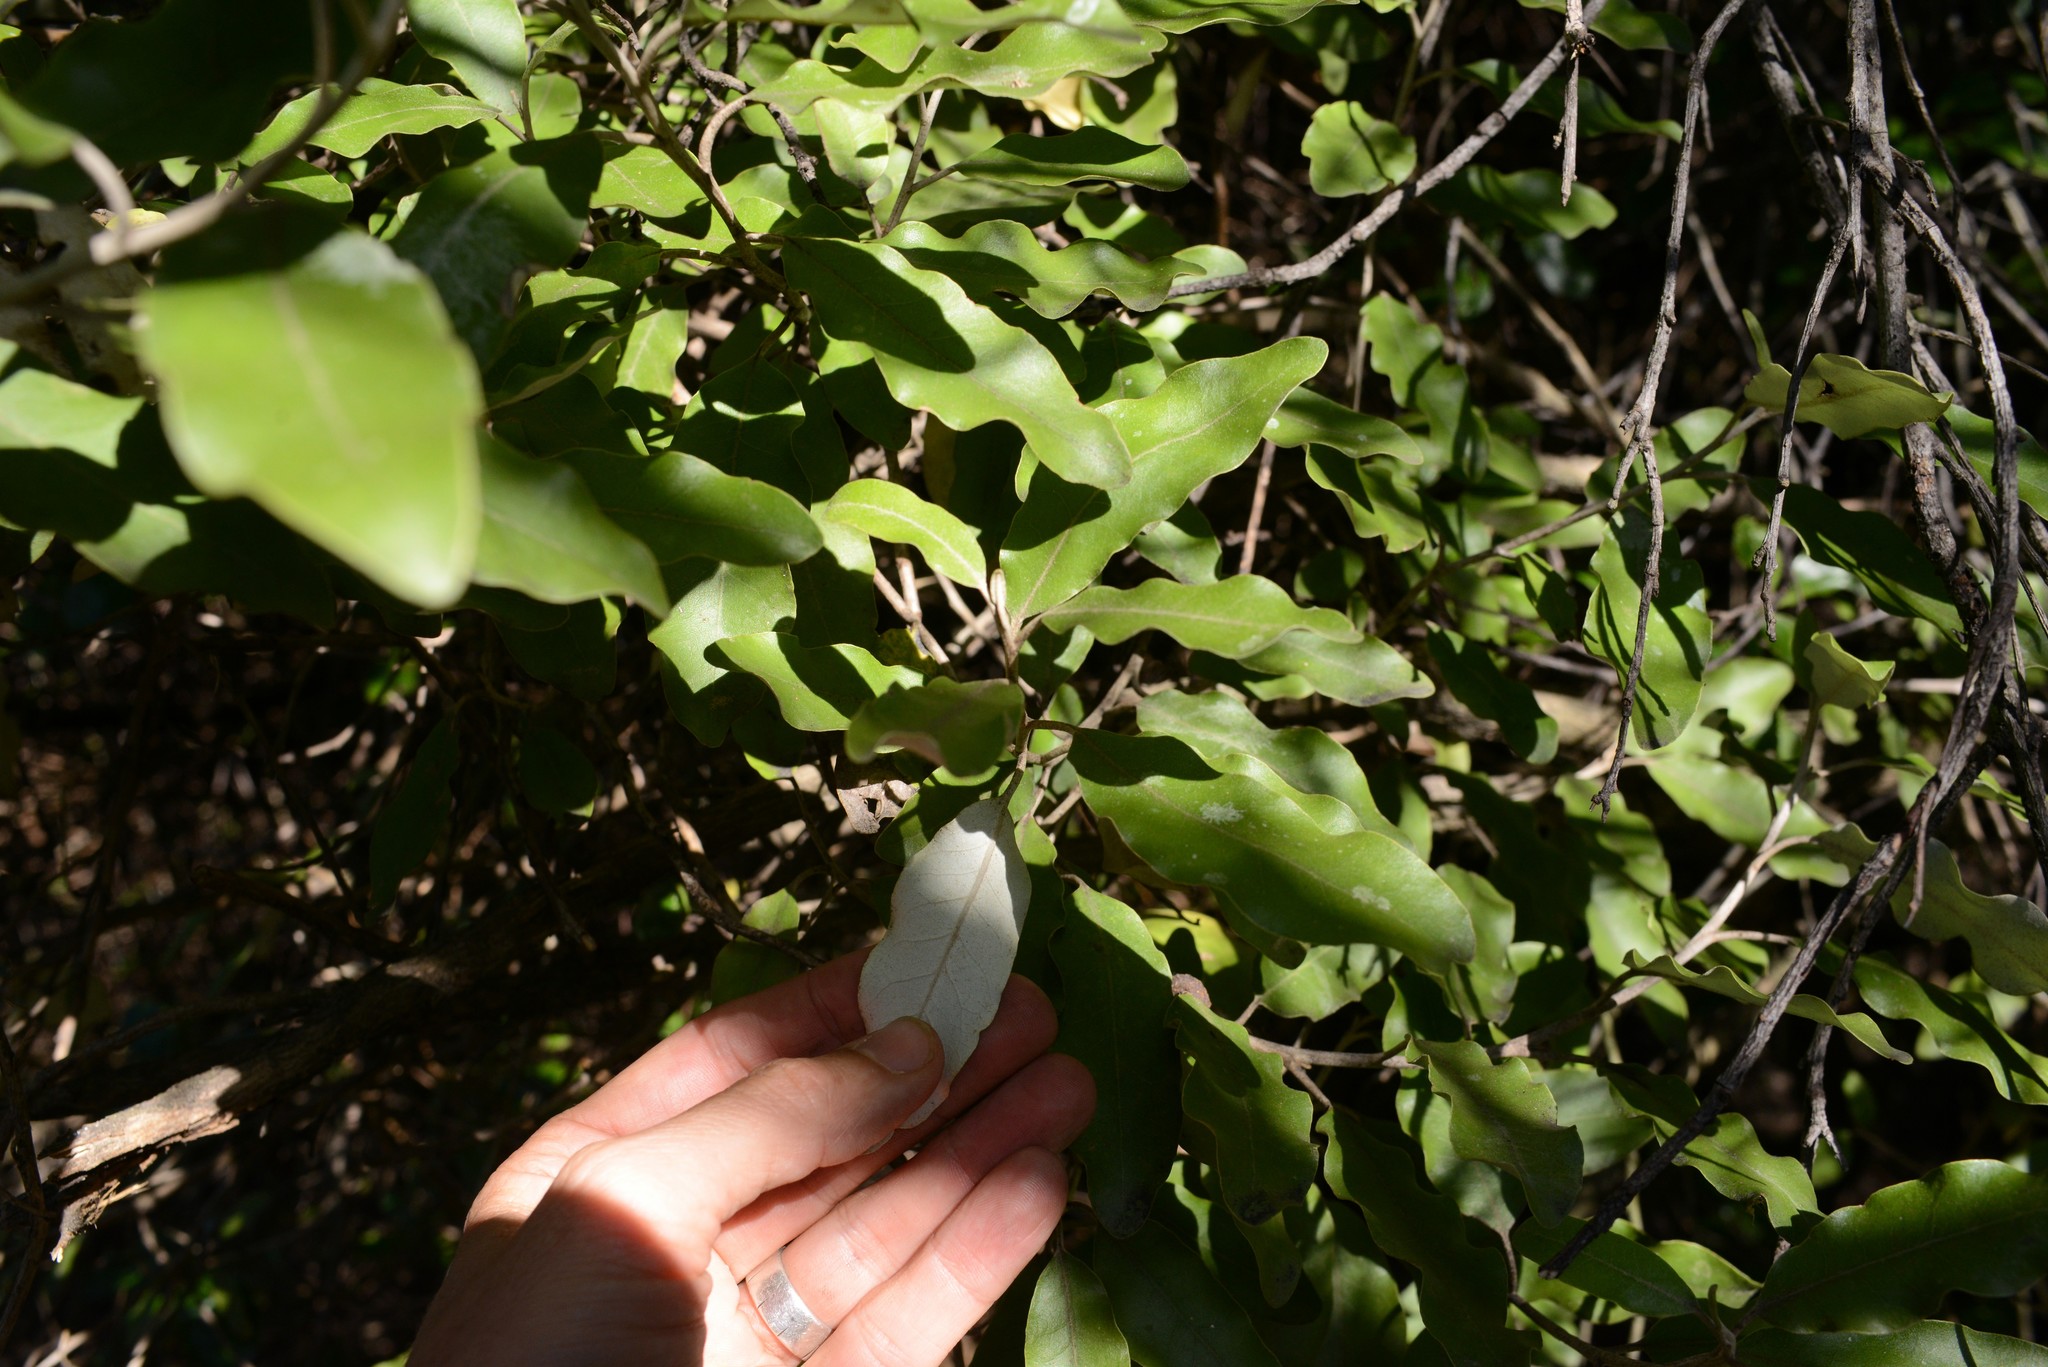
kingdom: Plantae
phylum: Tracheophyta
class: Magnoliopsida
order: Asterales
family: Asteraceae
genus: Olearia
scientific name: Olearia paniculata
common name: Akiraho
